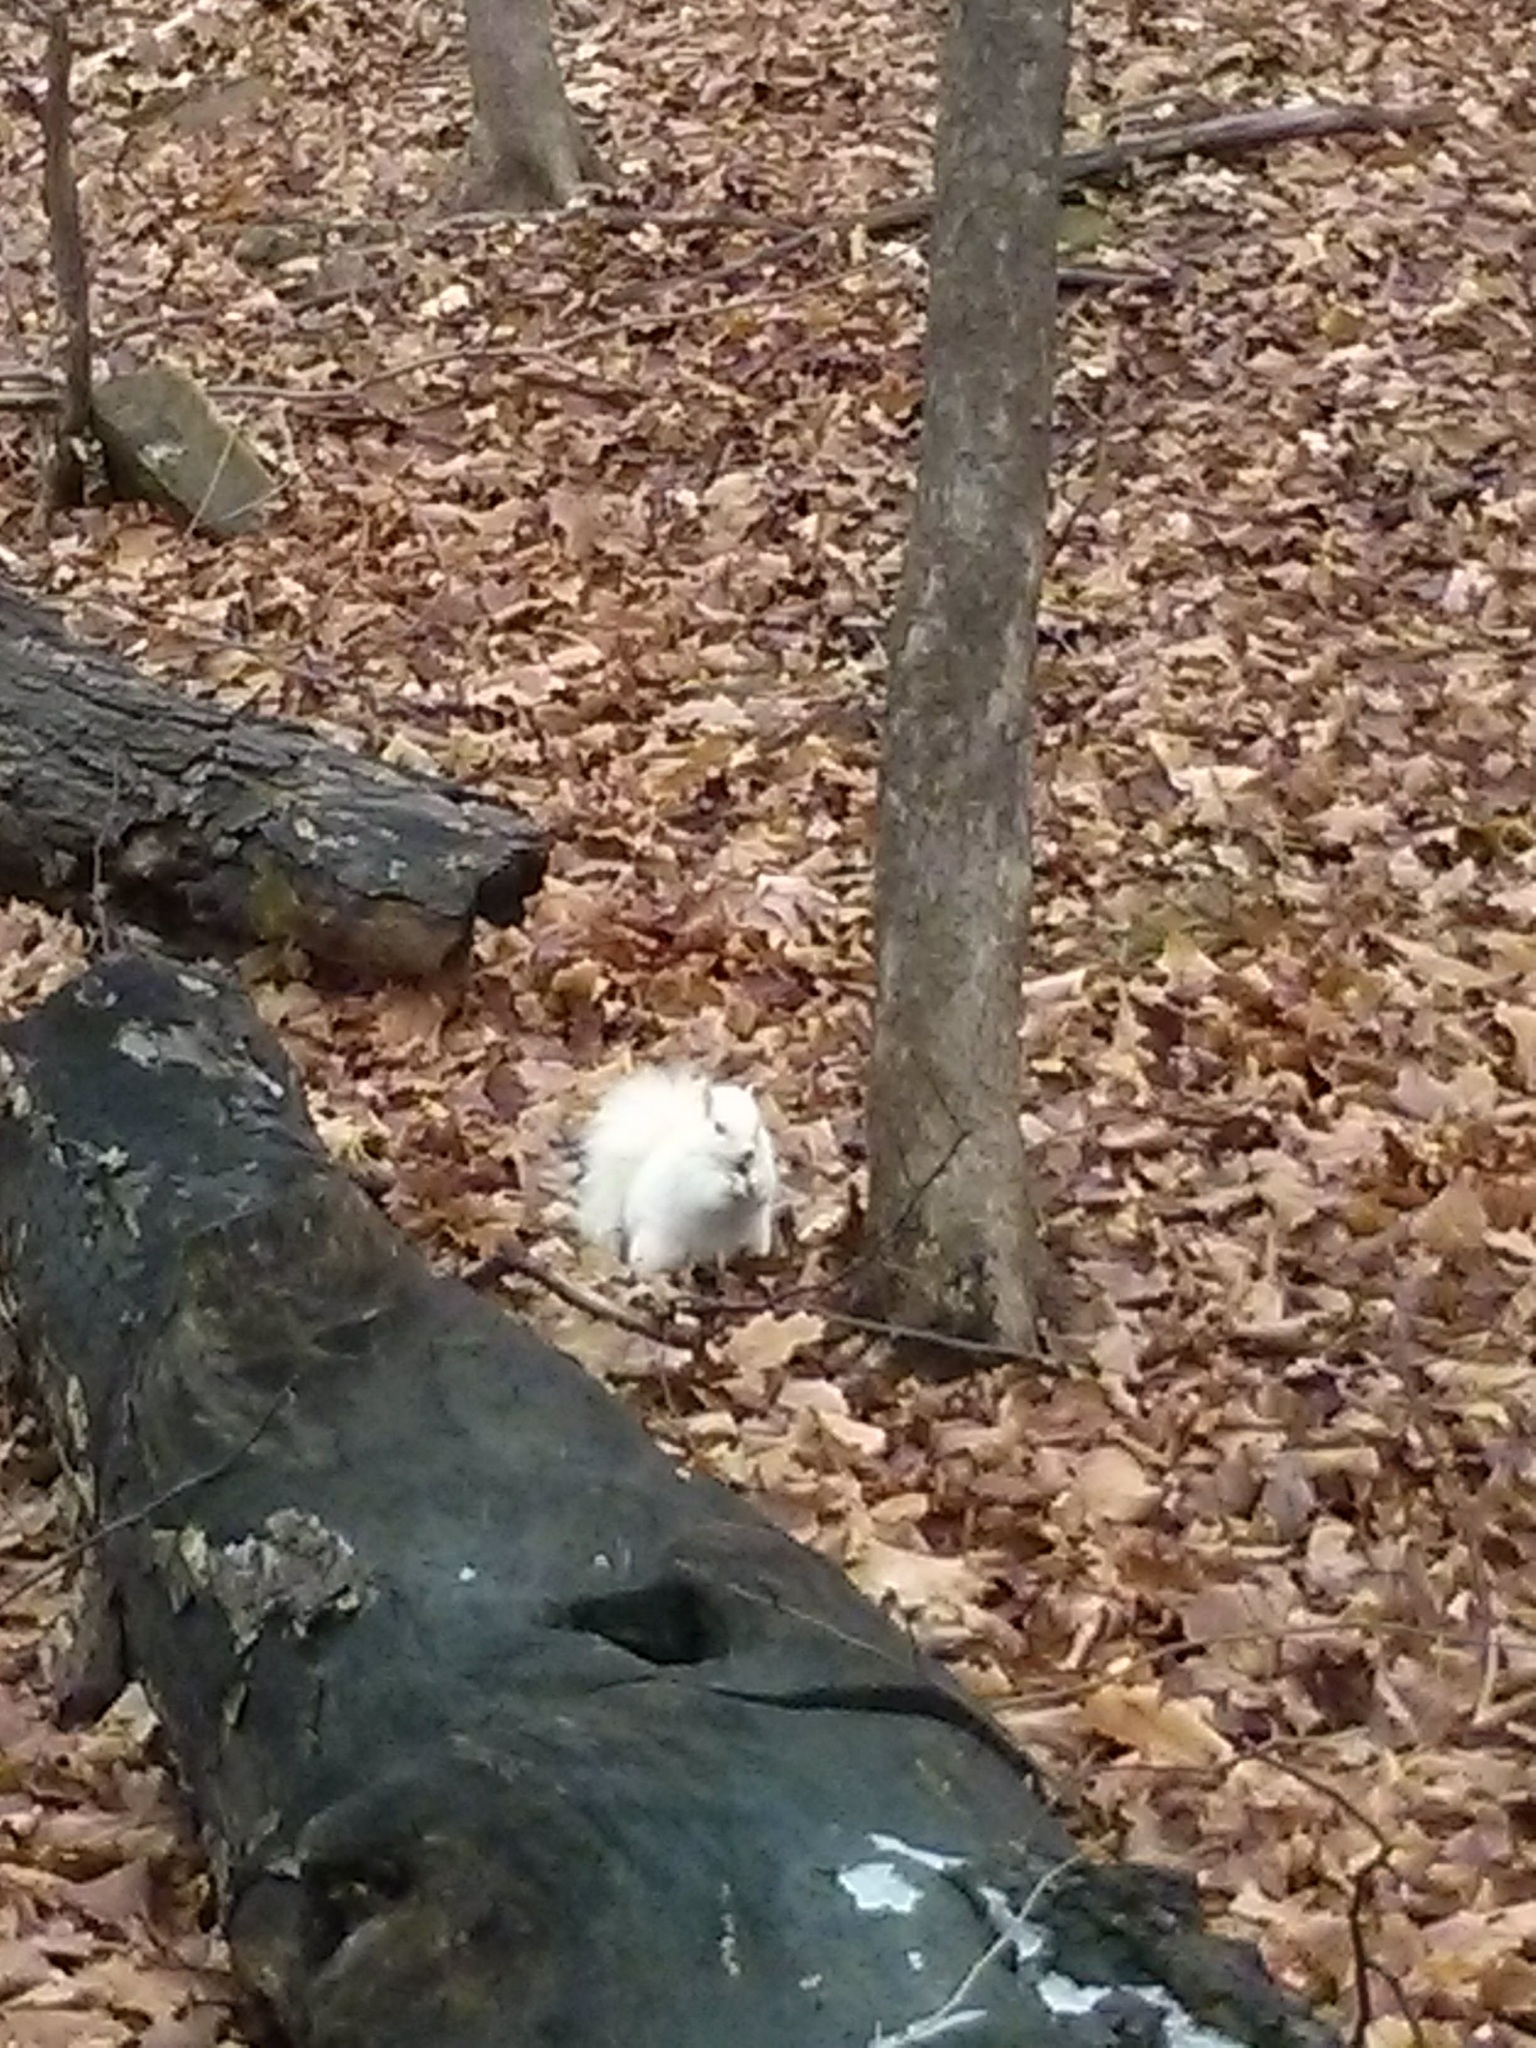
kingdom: Animalia
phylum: Chordata
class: Mammalia
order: Rodentia
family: Sciuridae
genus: Sciurus
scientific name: Sciurus carolinensis
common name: Eastern gray squirrel
